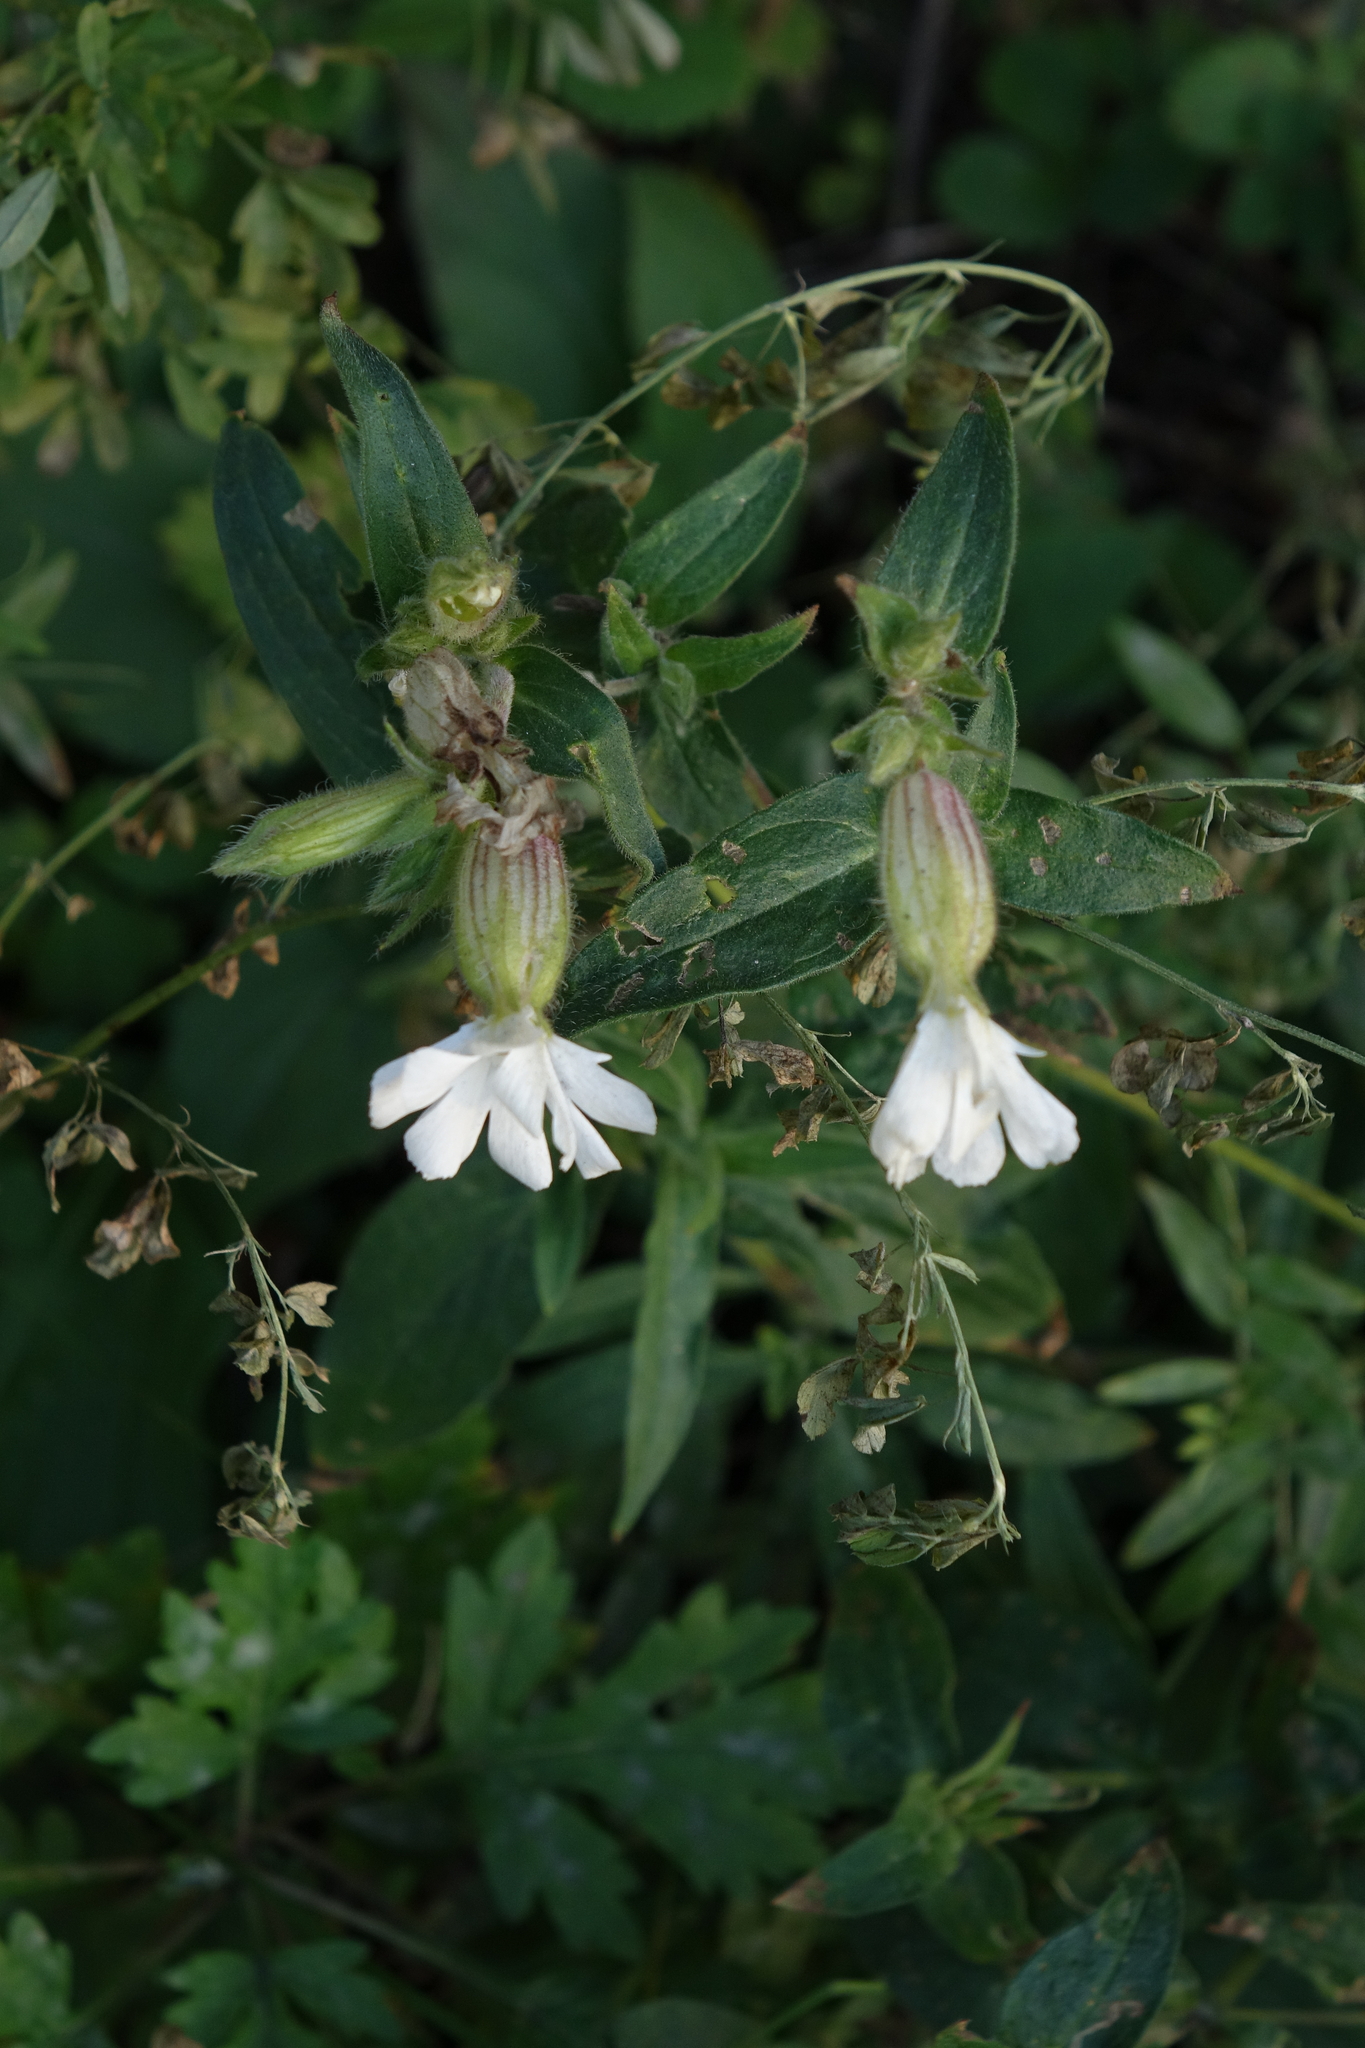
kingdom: Plantae
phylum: Tracheophyta
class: Magnoliopsida
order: Caryophyllales
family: Caryophyllaceae
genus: Silene
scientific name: Silene latifolia
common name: White campion
